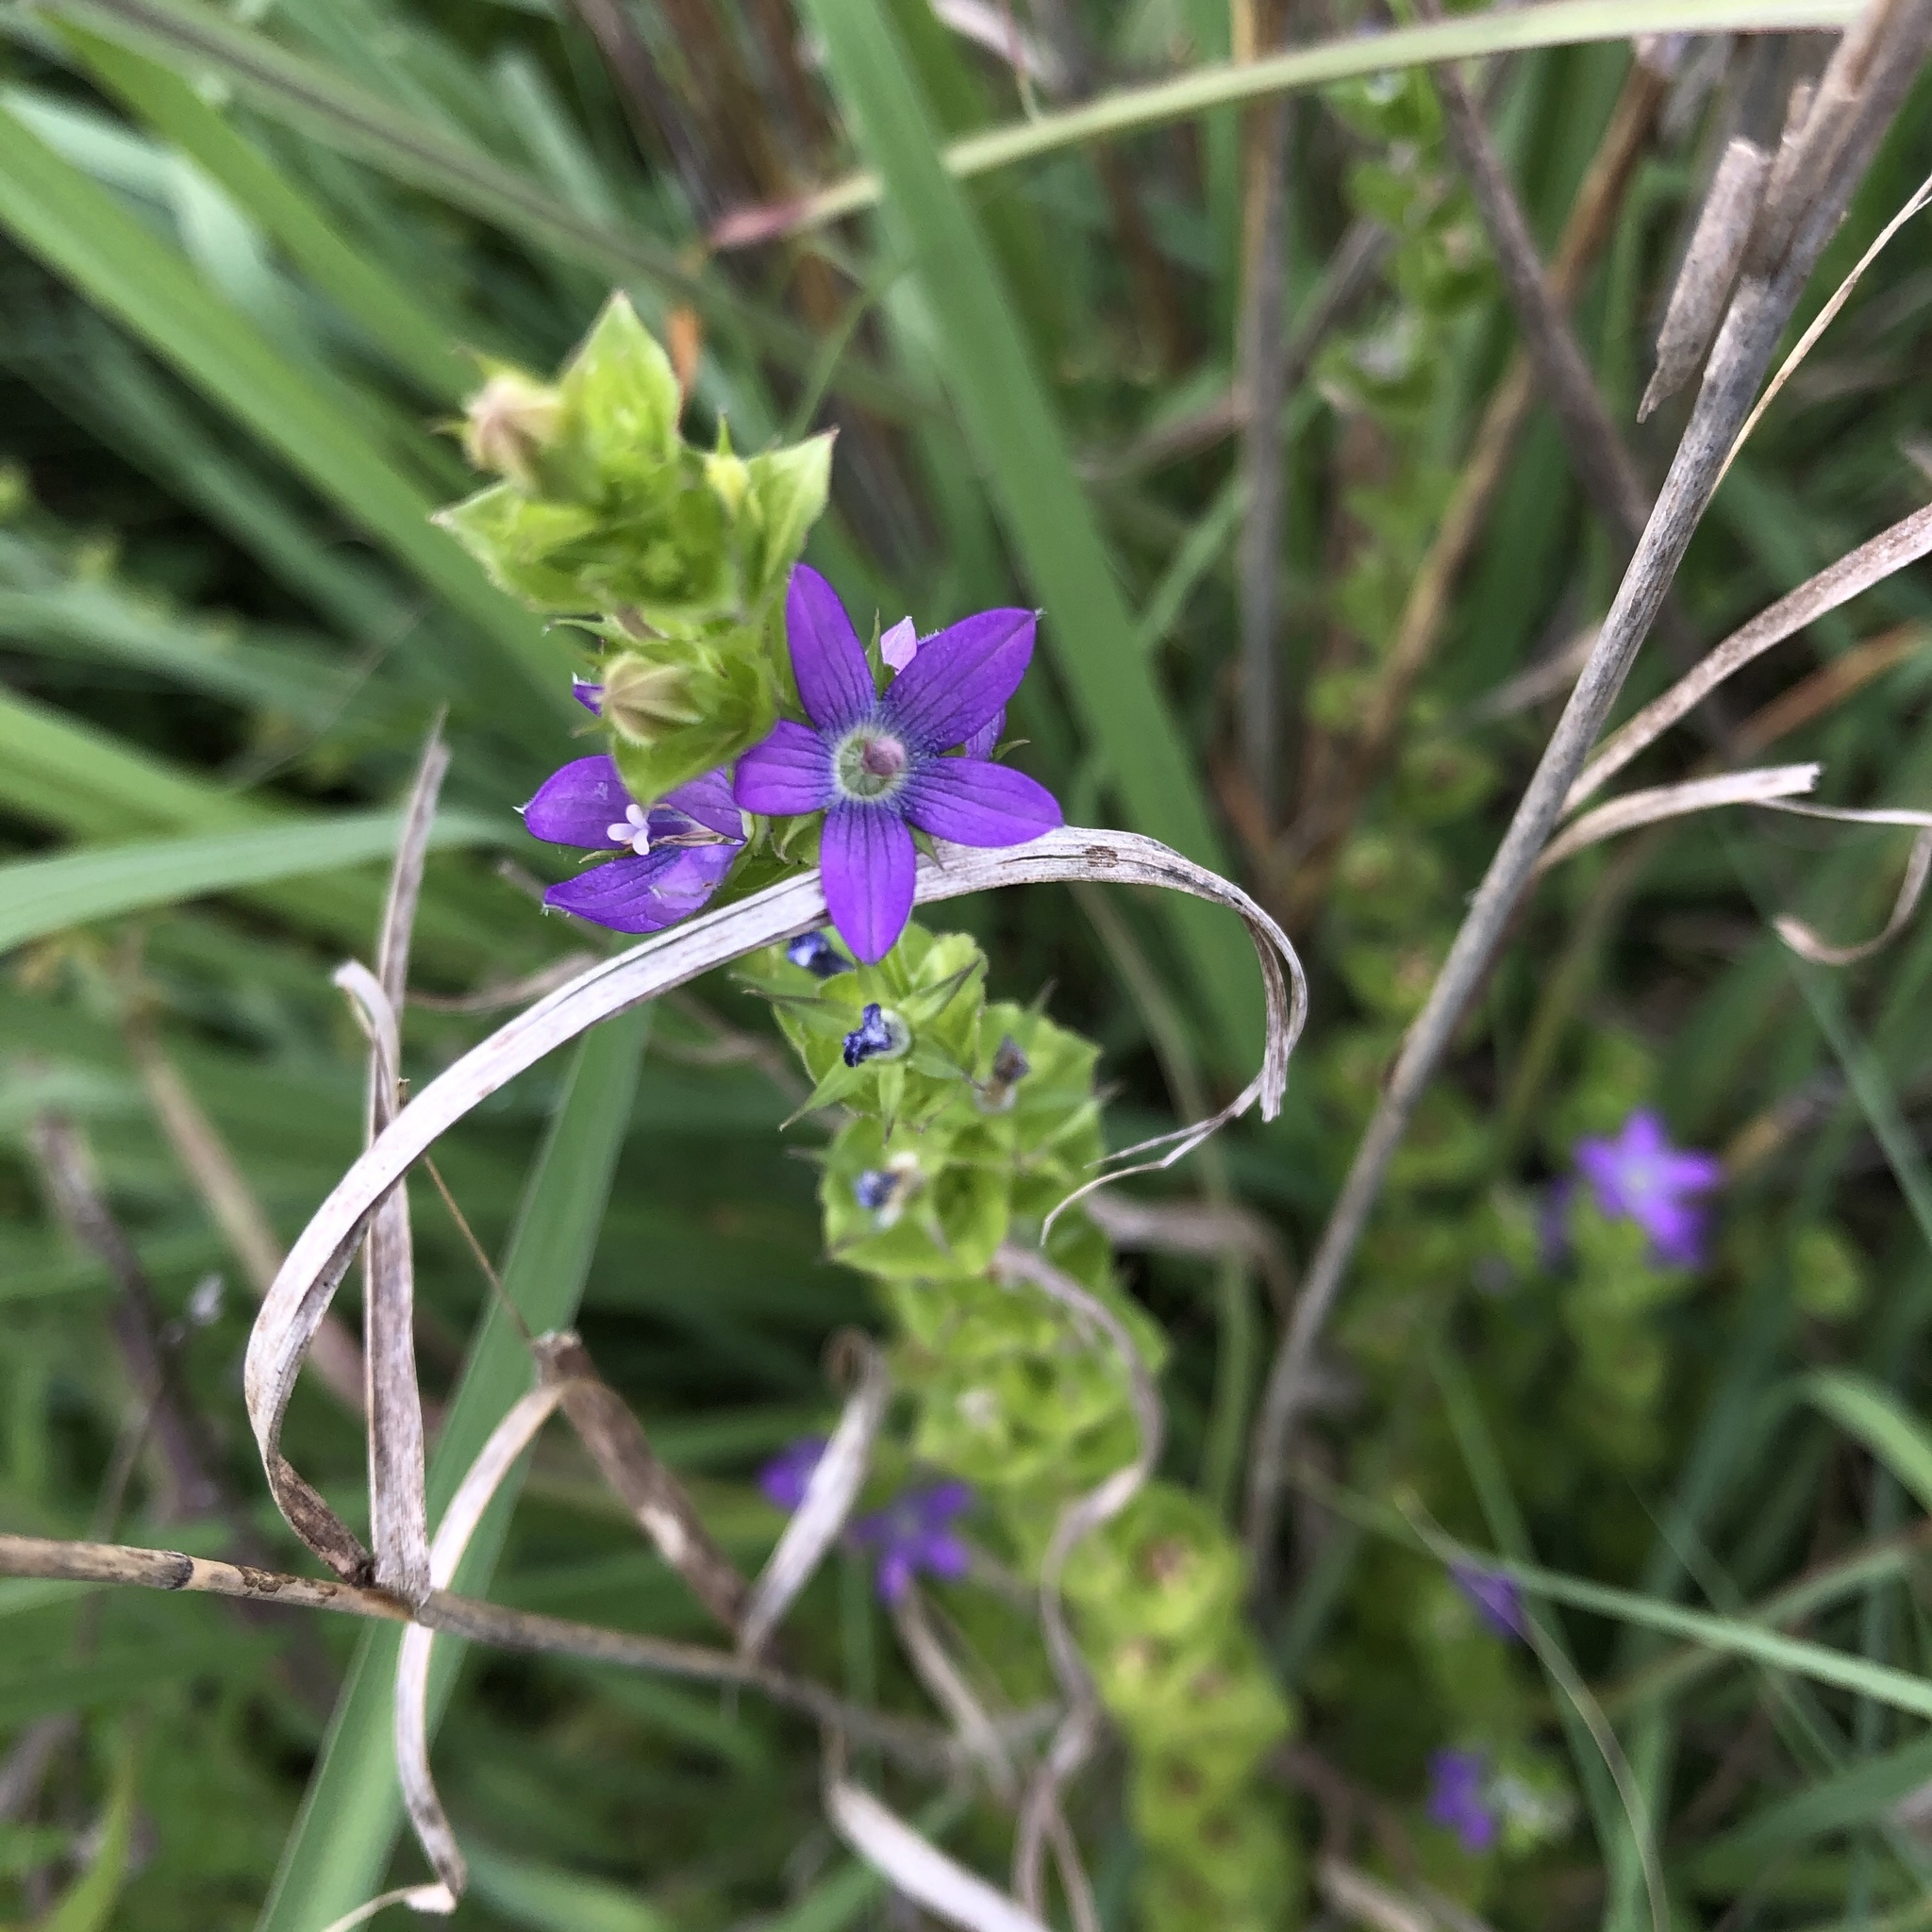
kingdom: Plantae
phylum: Tracheophyta
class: Magnoliopsida
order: Asterales
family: Campanulaceae
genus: Triodanis
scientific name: Triodanis perfoliata
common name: Clasping venus' looking-glass
